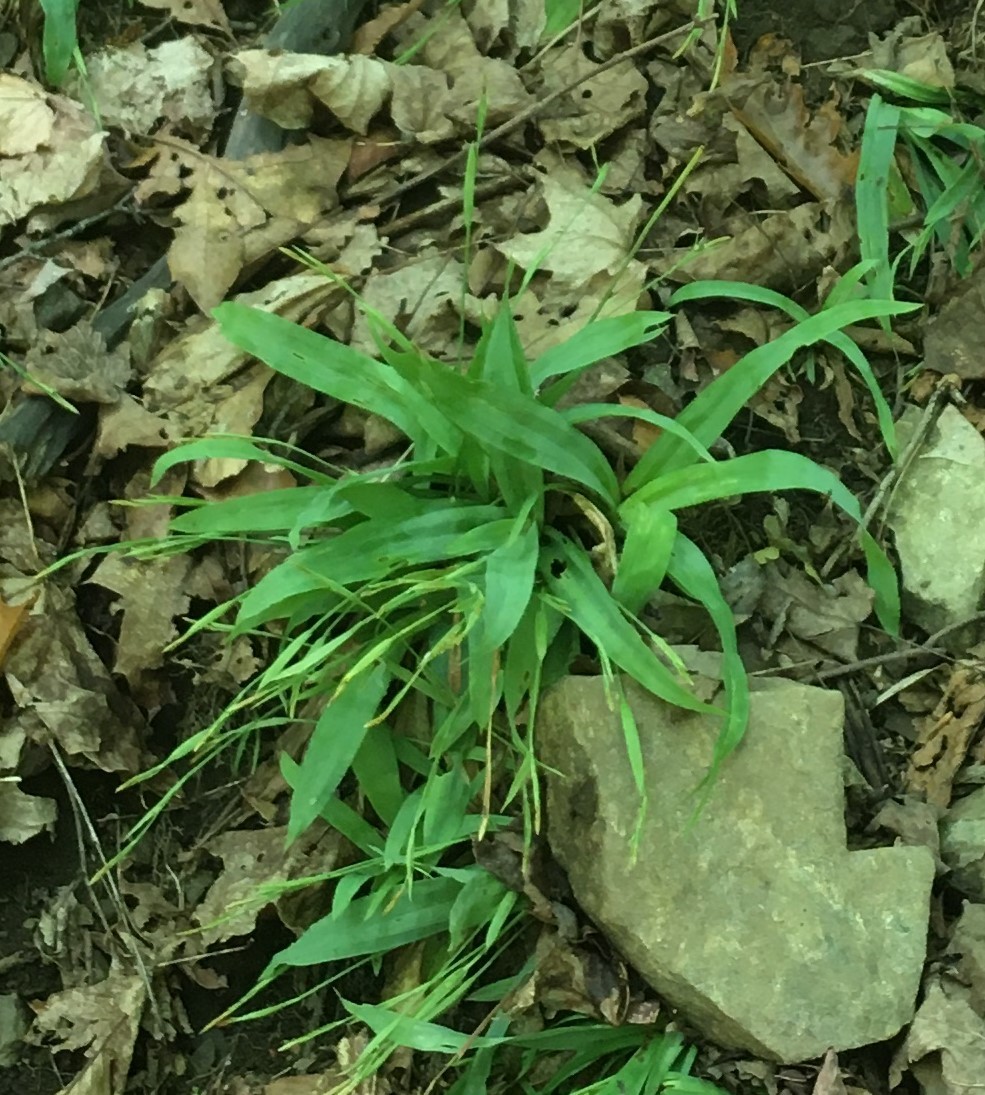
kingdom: Plantae
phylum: Tracheophyta
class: Liliopsida
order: Poales
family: Cyperaceae
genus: Carex
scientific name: Carex platyphylla
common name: Broad-leaved sedge
